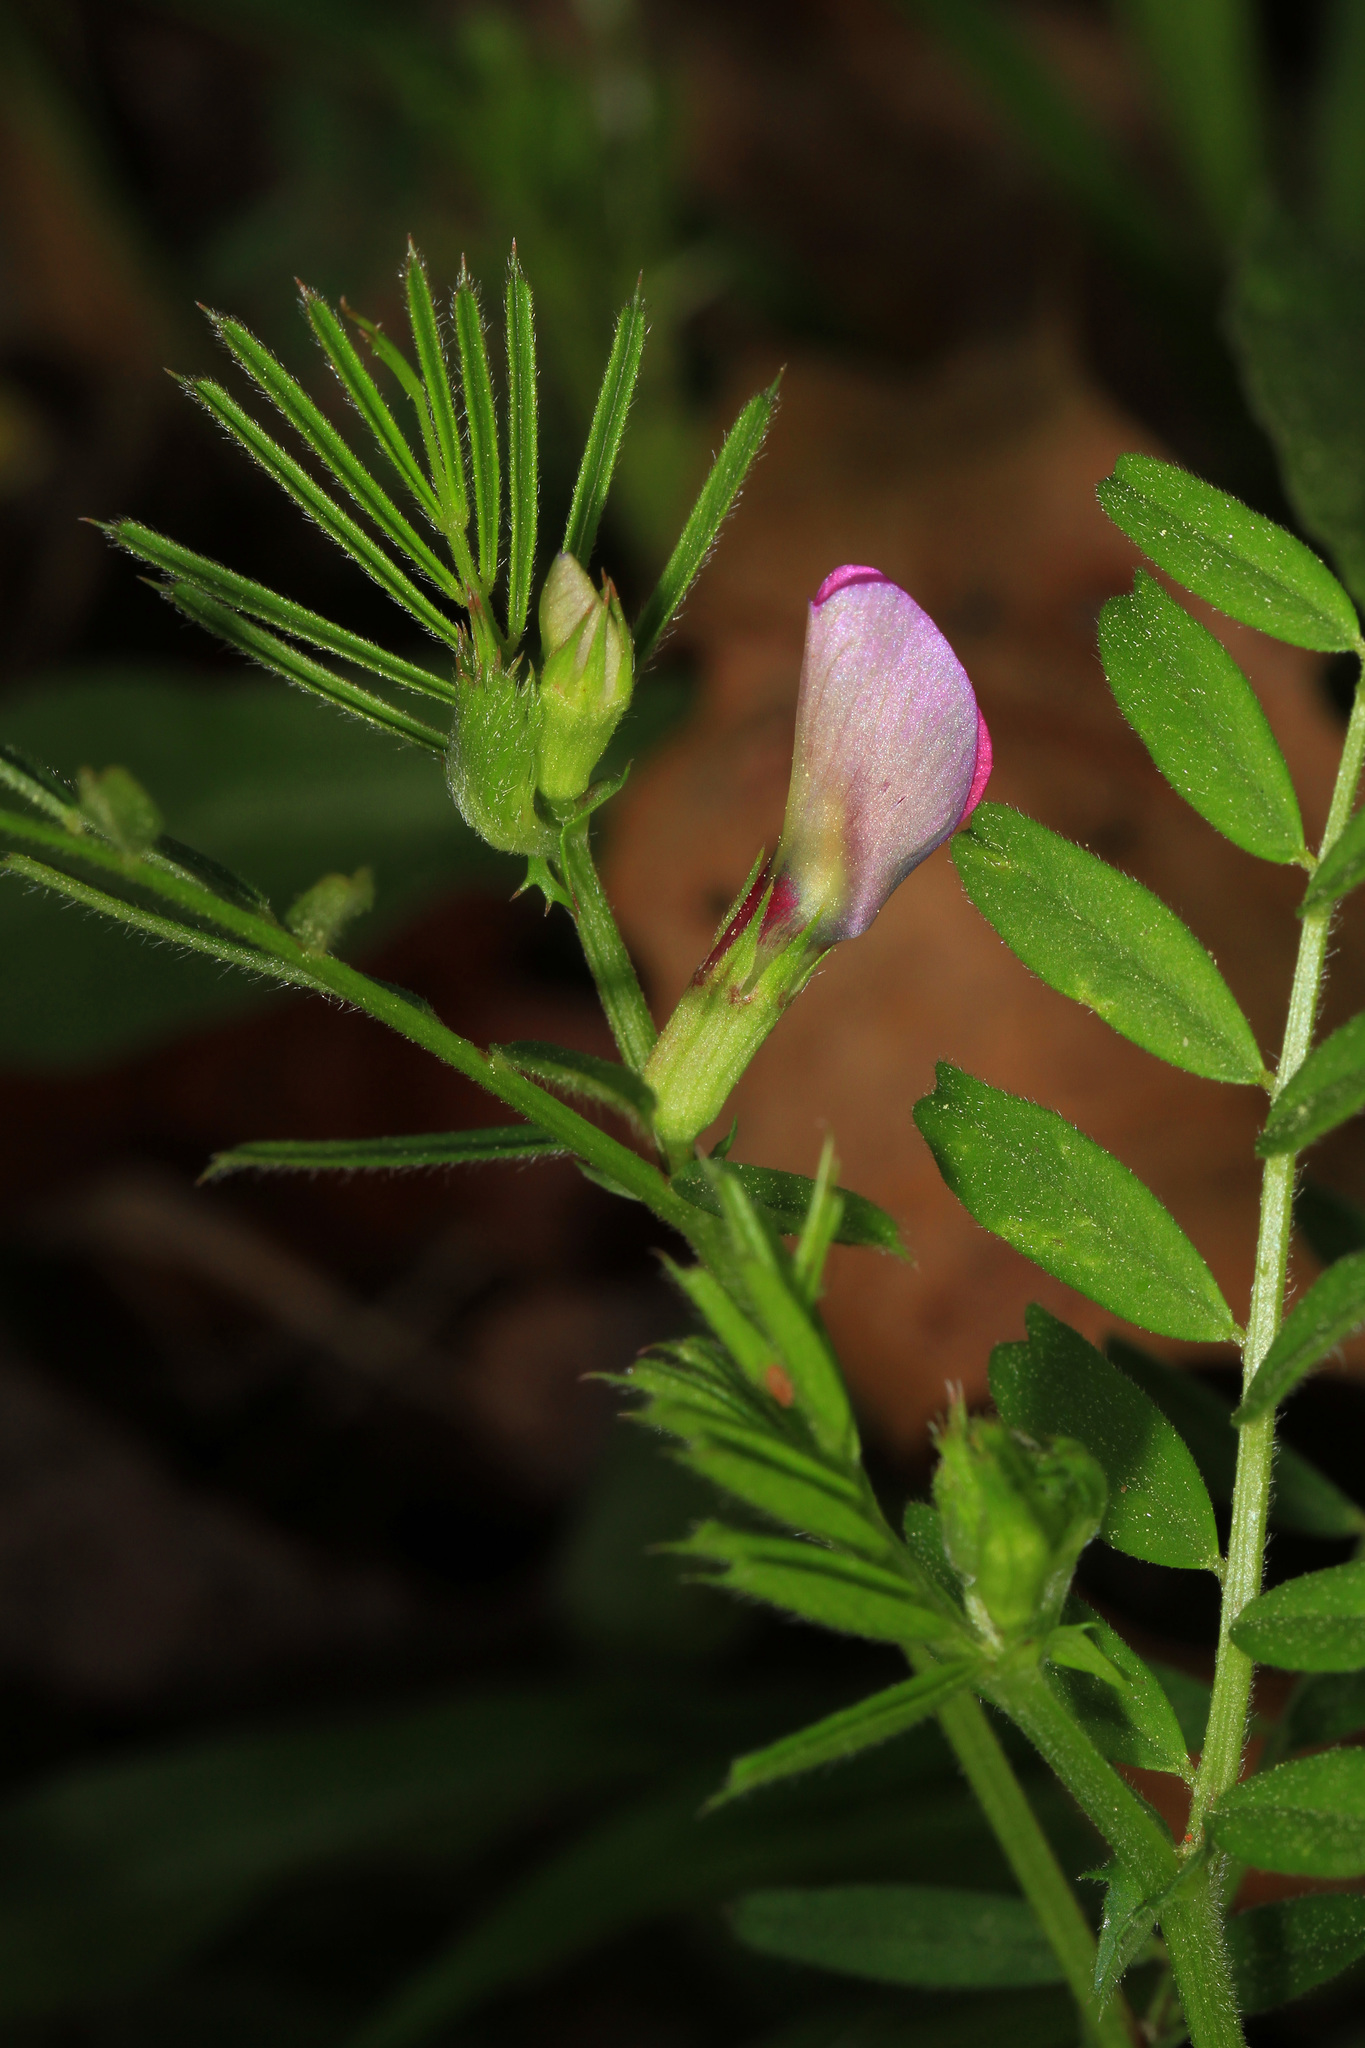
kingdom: Plantae
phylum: Tracheophyta
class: Magnoliopsida
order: Fabales
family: Fabaceae
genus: Vicia
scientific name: Vicia sativa
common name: Garden vetch
